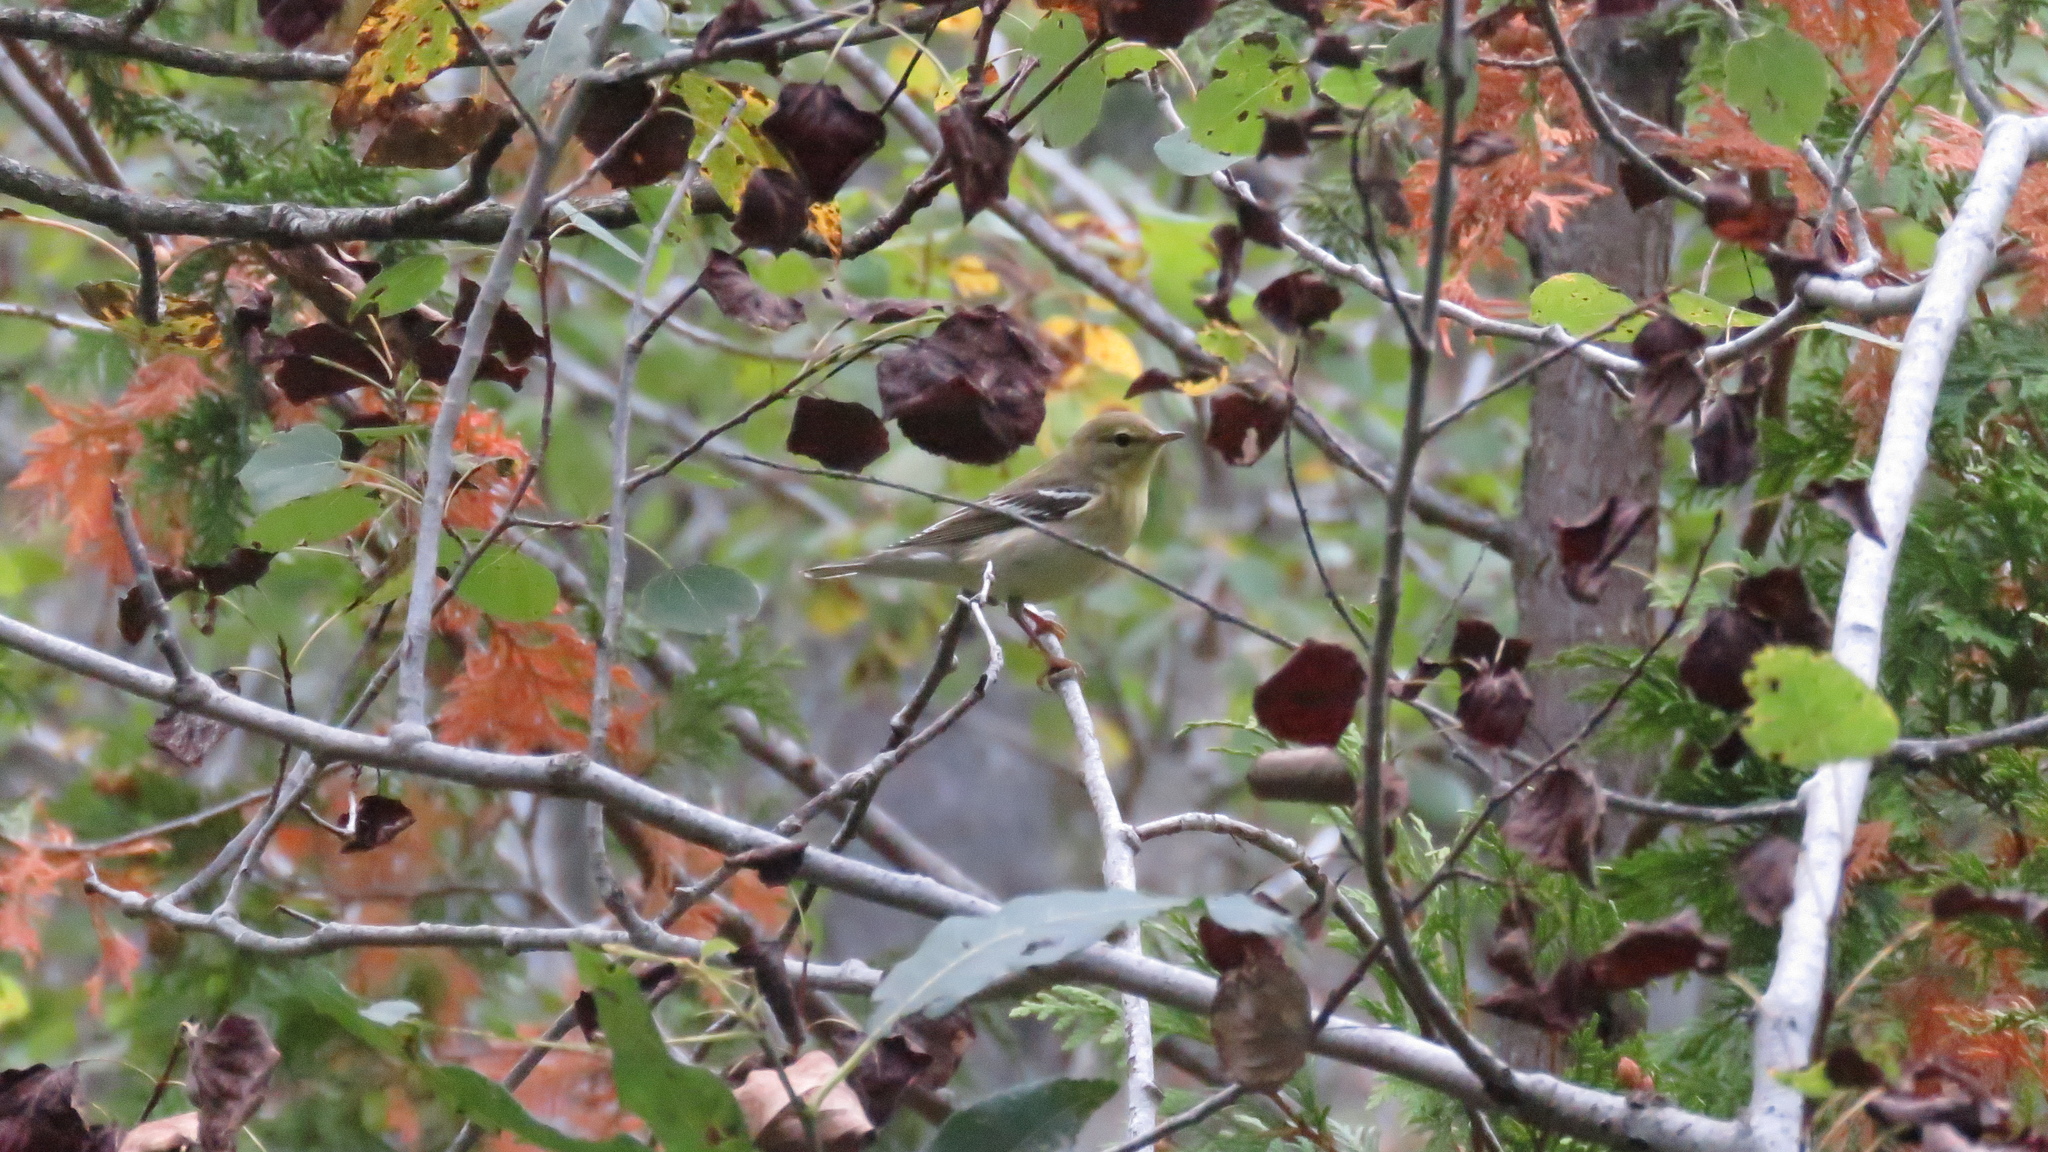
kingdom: Animalia
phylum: Chordata
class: Aves
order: Passeriformes
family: Parulidae
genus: Setophaga
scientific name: Setophaga striata
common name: Blackpoll warbler
